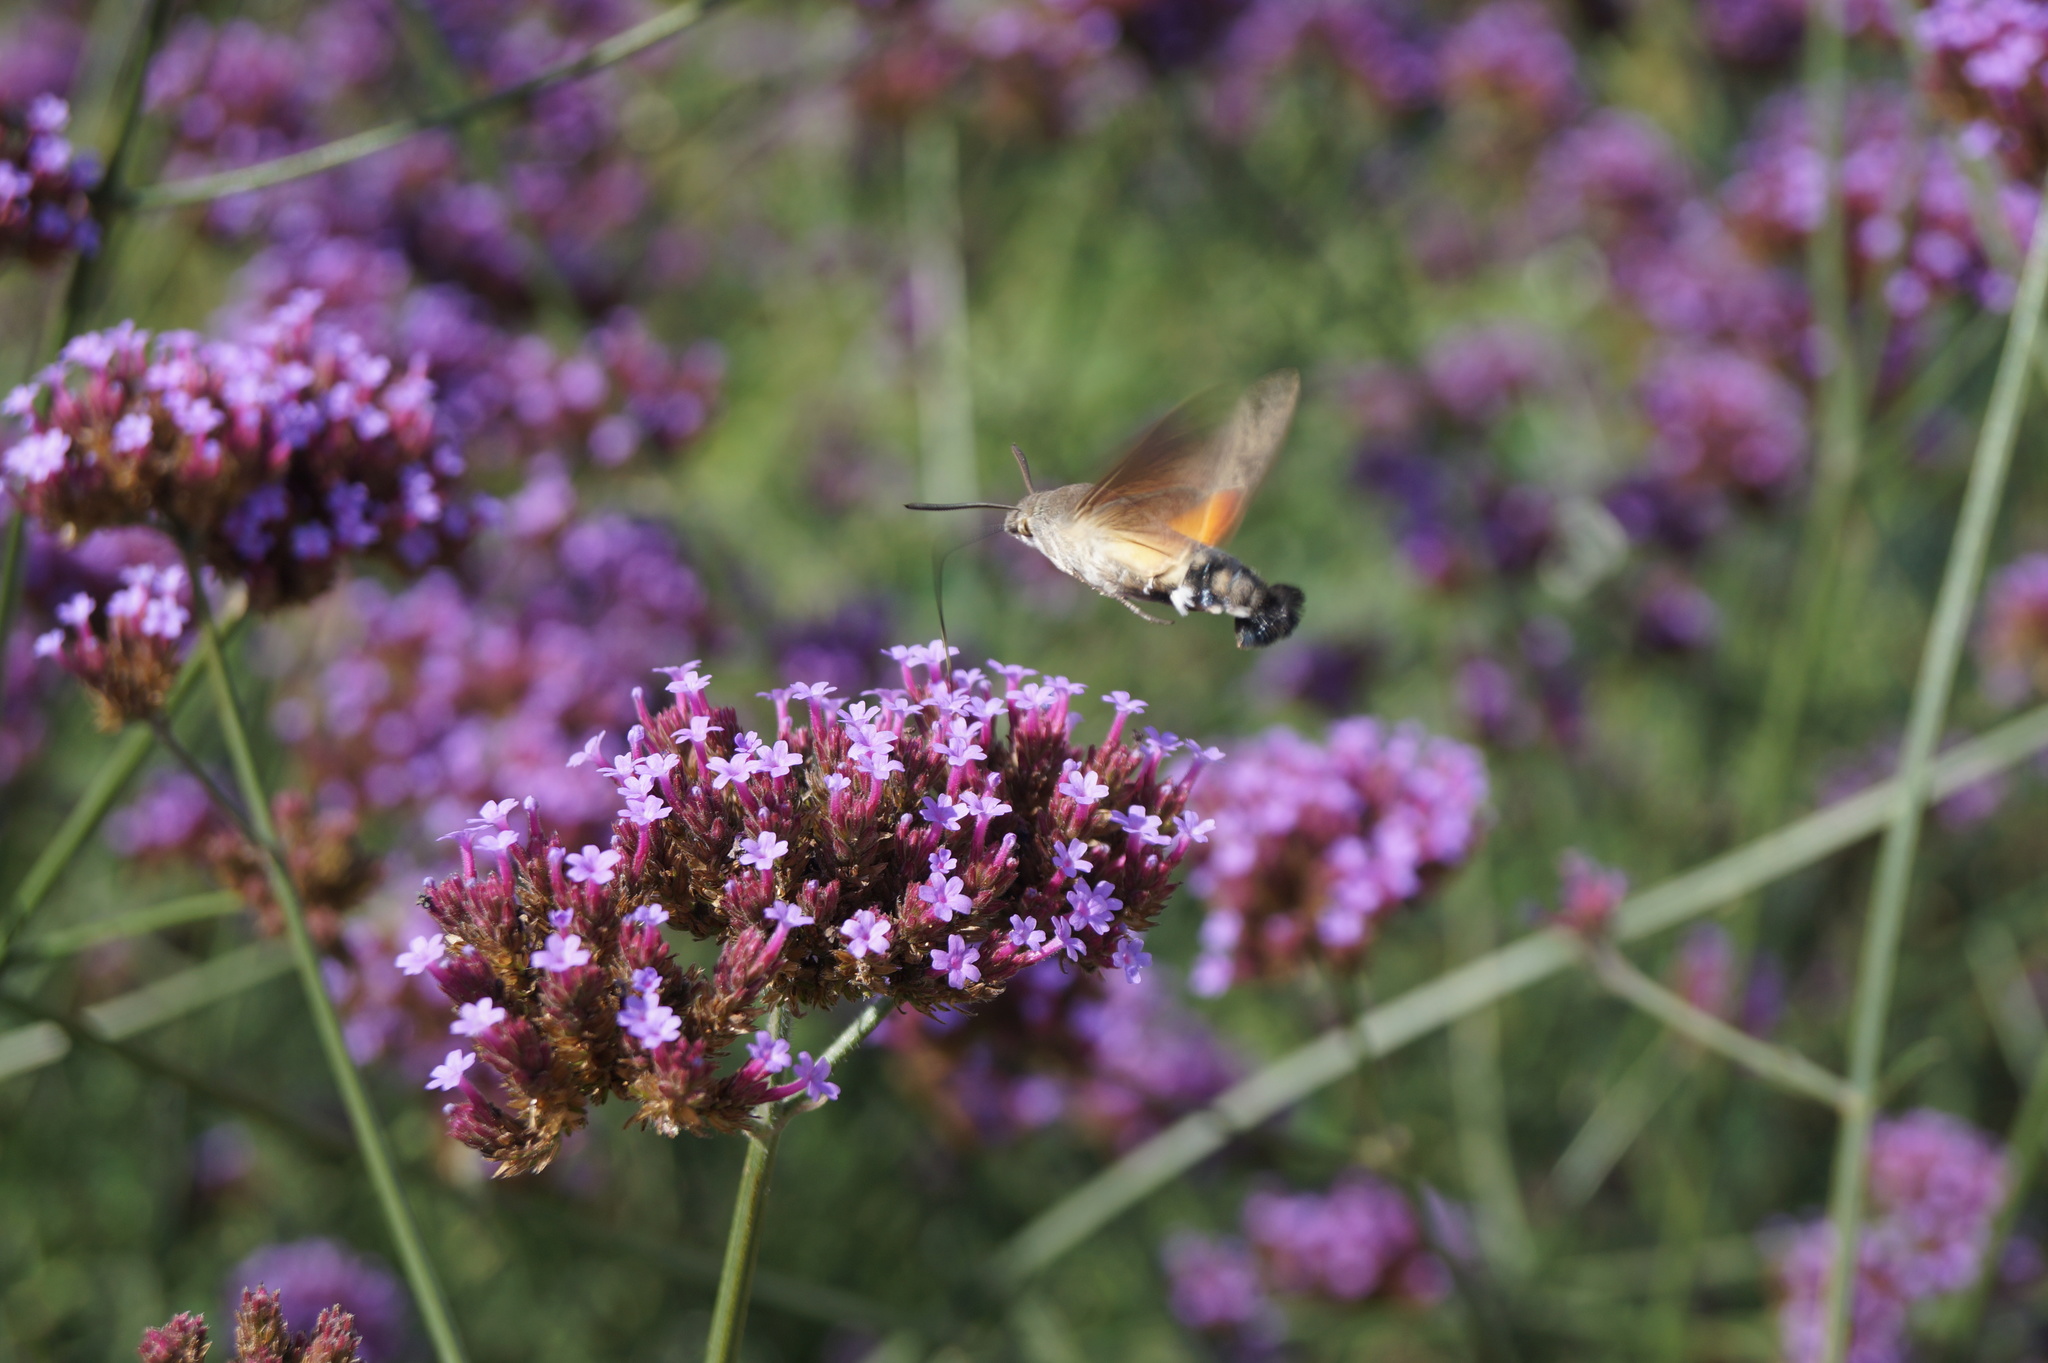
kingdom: Animalia
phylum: Arthropoda
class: Insecta
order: Lepidoptera
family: Sphingidae
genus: Macroglossum
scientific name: Macroglossum stellatarum
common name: Humming-bird hawk-moth
